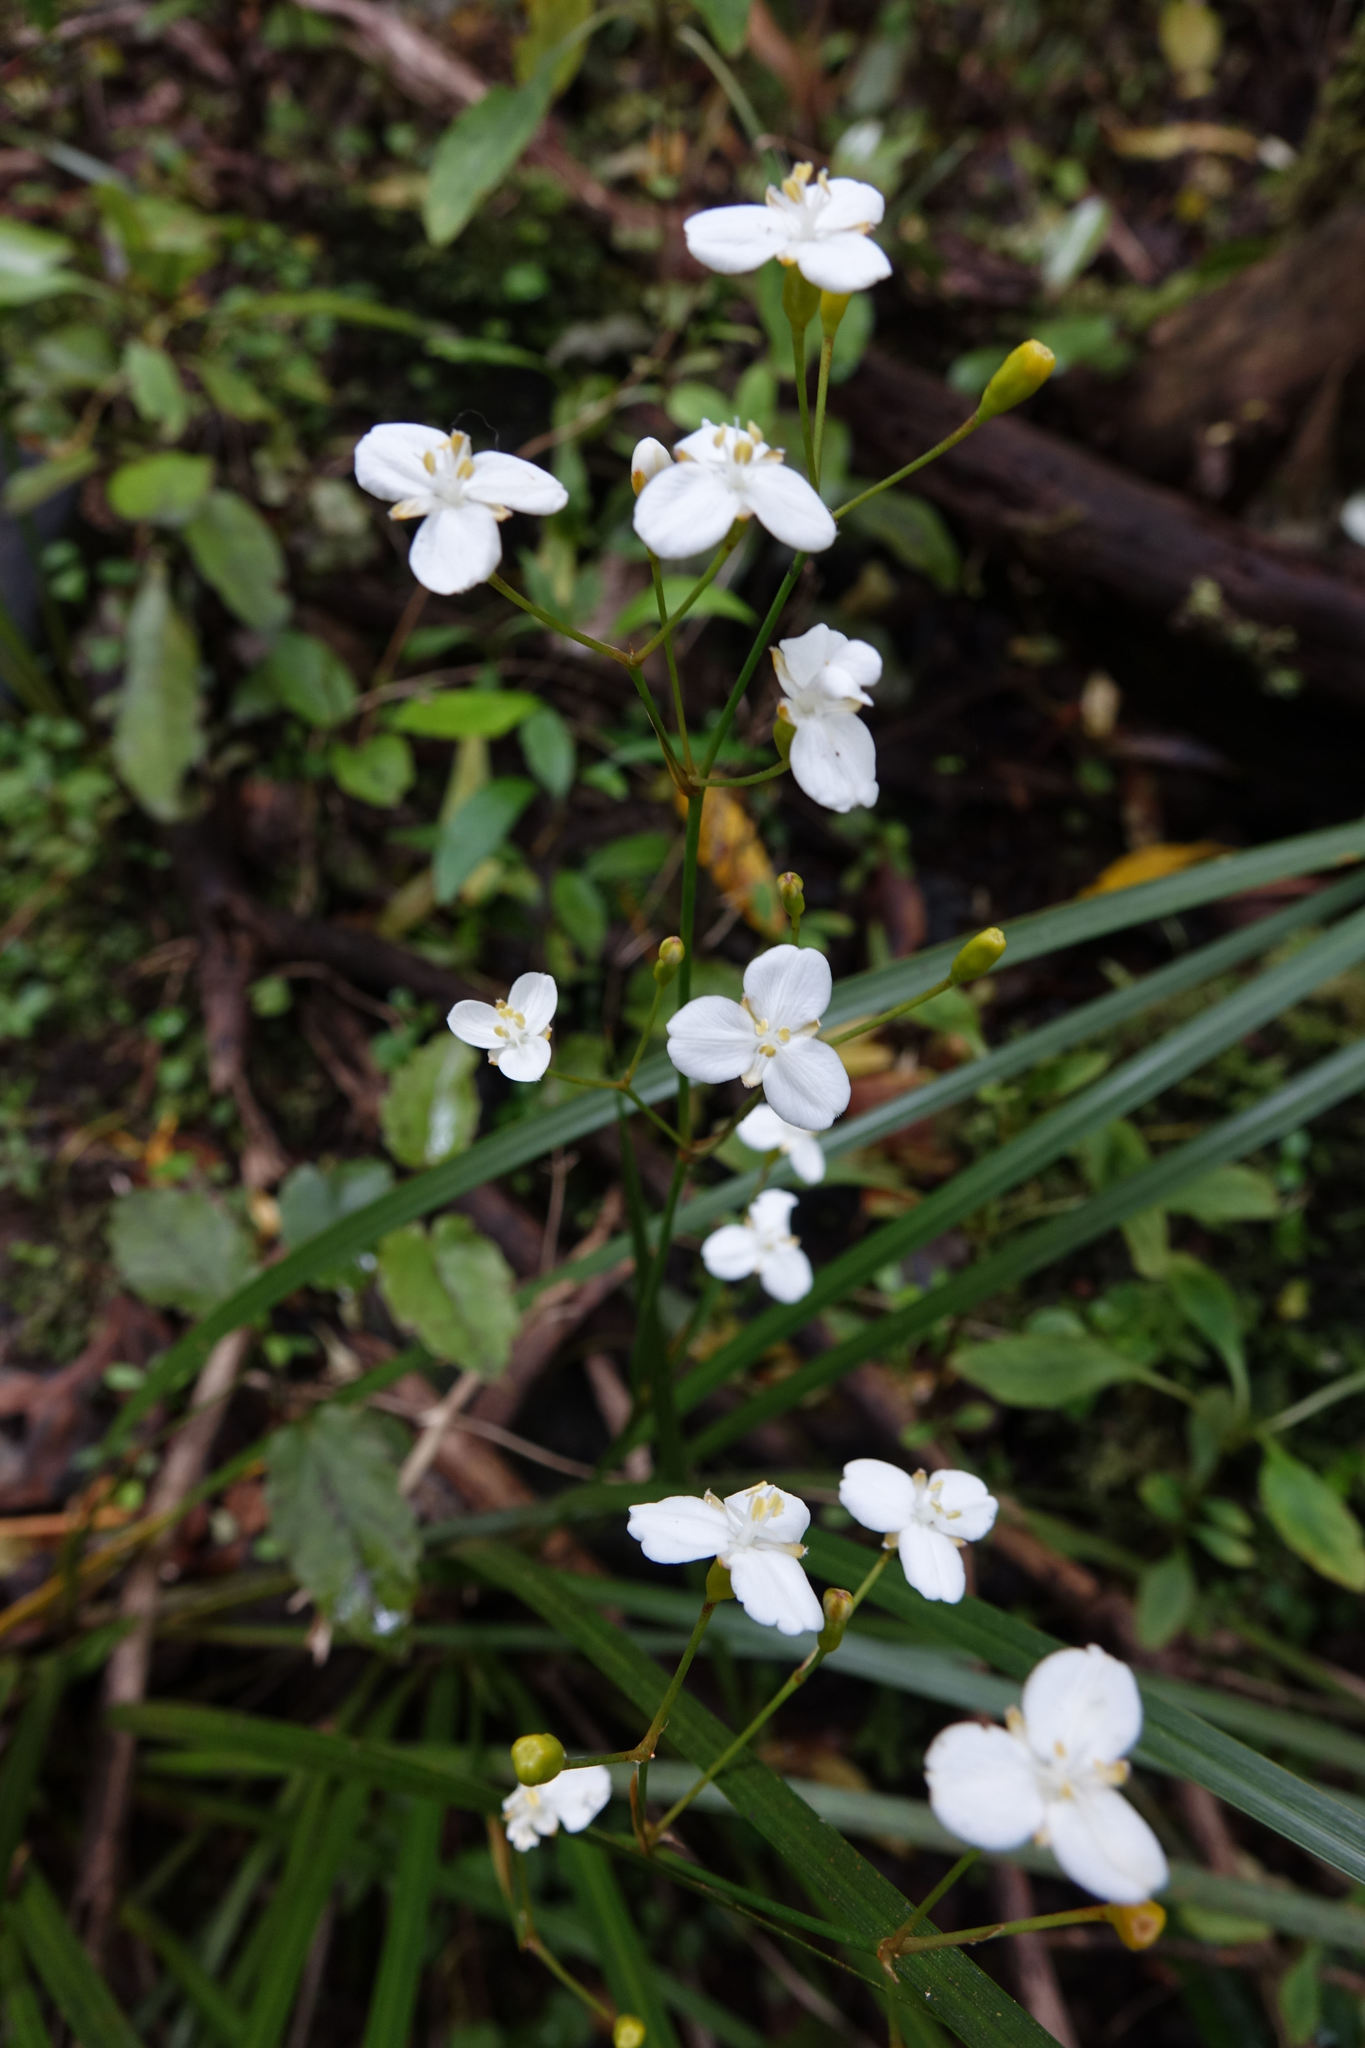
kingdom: Plantae
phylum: Tracheophyta
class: Liliopsida
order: Asparagales
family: Iridaceae
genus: Libertia
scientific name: Libertia ixioides
